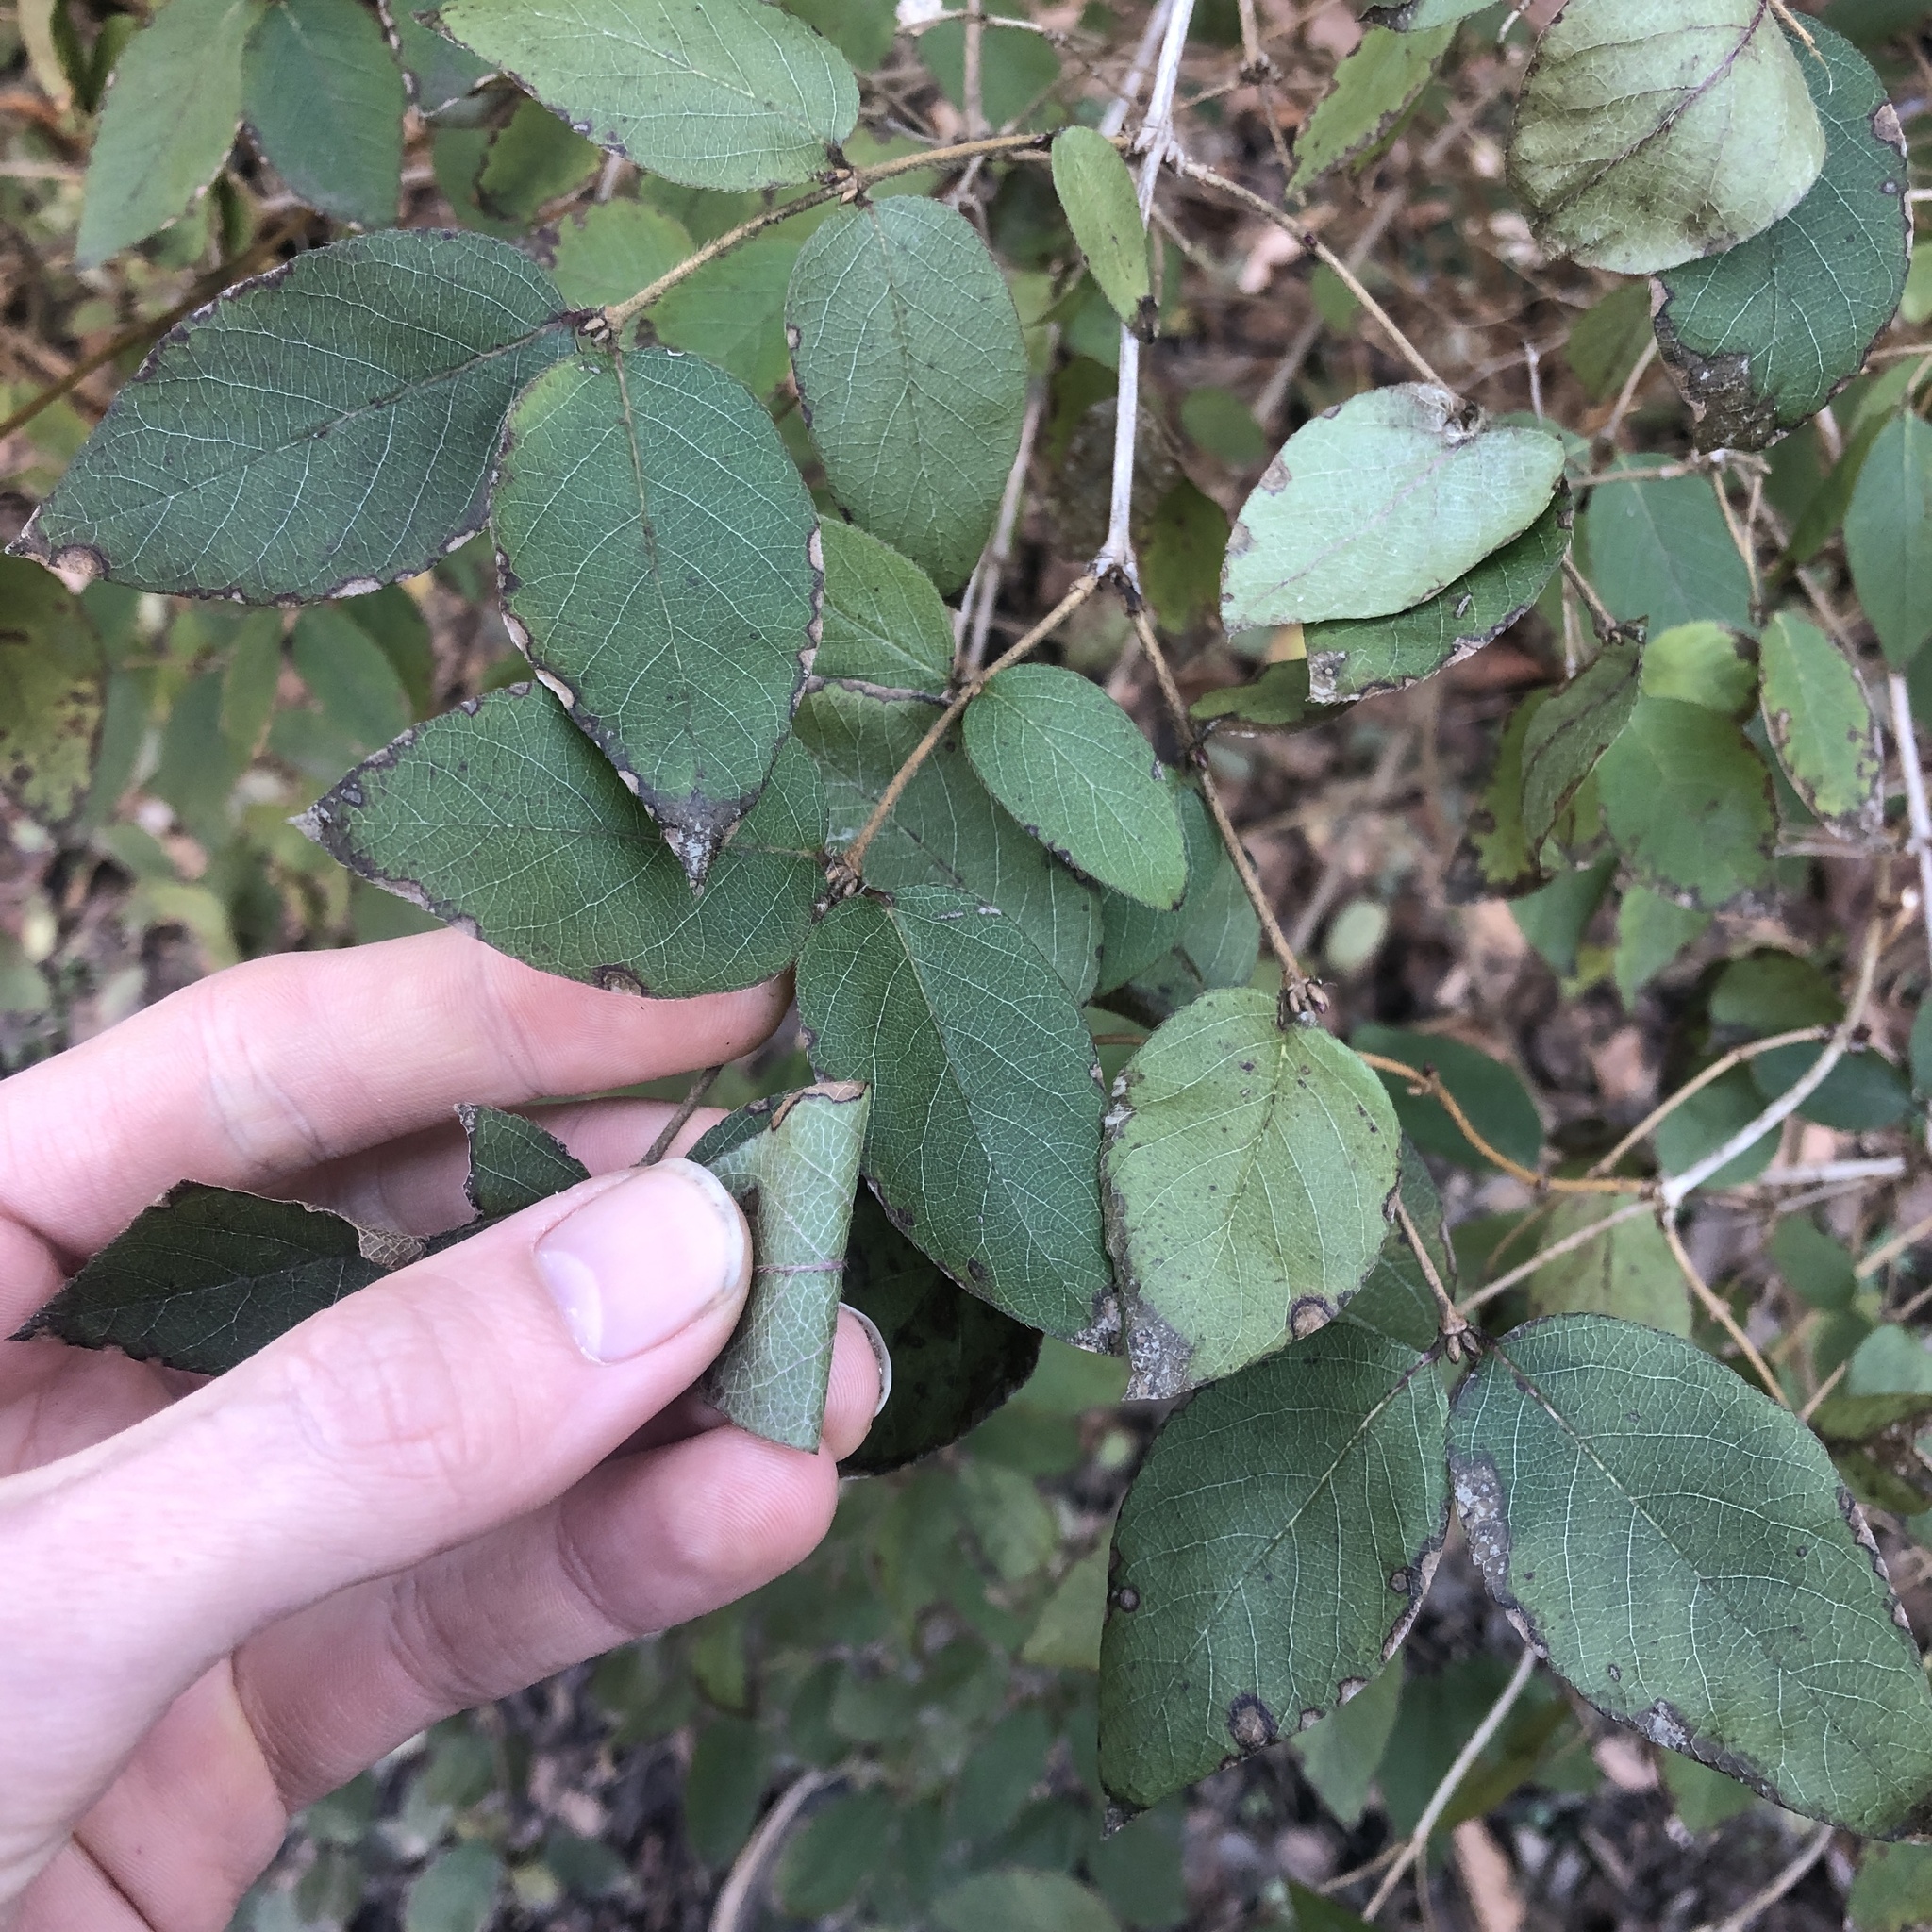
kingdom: Plantae
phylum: Tracheophyta
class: Magnoliopsida
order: Dipsacales
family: Caprifoliaceae
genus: Lonicera
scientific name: Lonicera fragrantissima
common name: Fragrant honeysuckle
